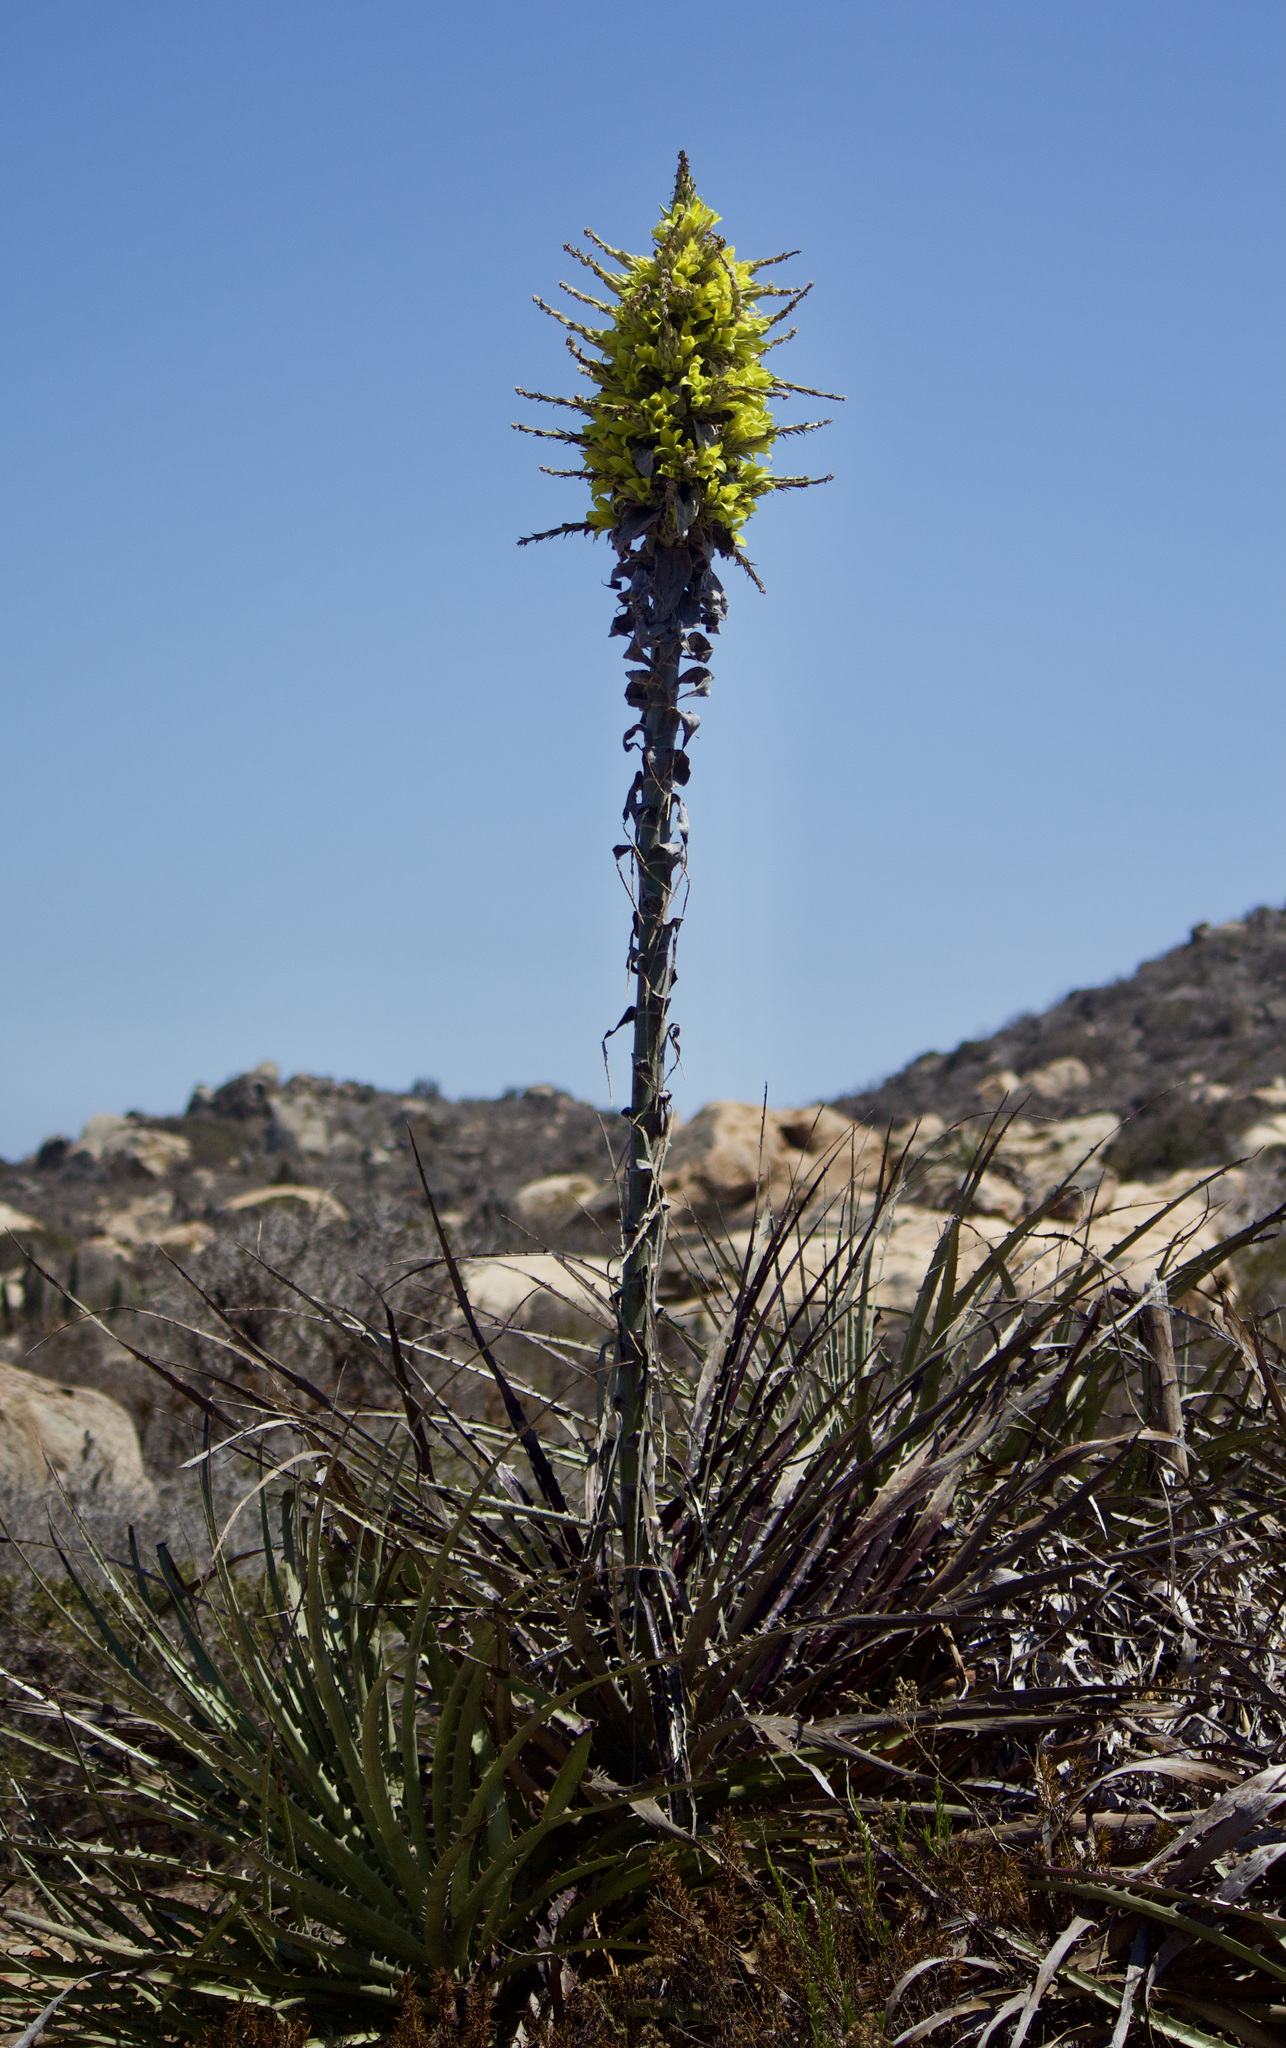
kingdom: Plantae
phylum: Tracheophyta
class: Liliopsida
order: Poales
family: Bromeliaceae
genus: Puya
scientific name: Puya chilensis
